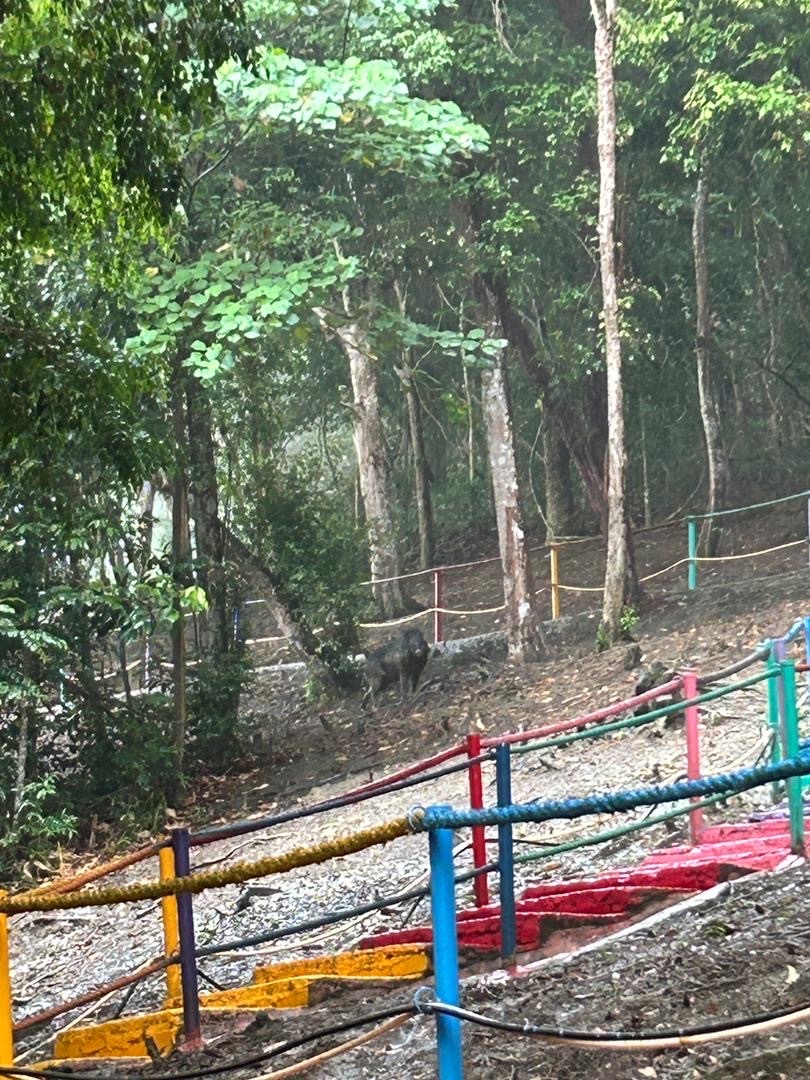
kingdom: Animalia
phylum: Chordata
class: Mammalia
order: Artiodactyla
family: Suidae
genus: Sus
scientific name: Sus scrofa
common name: Wild boar
